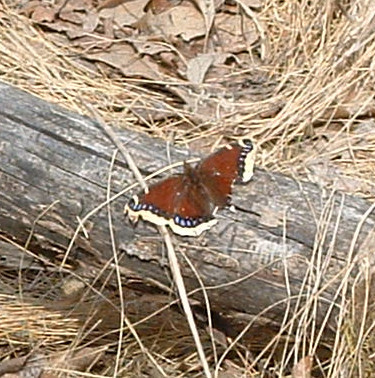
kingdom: Animalia
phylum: Arthropoda
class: Insecta
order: Lepidoptera
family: Nymphalidae
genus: Nymphalis
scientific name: Nymphalis antiopa
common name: Camberwell beauty
